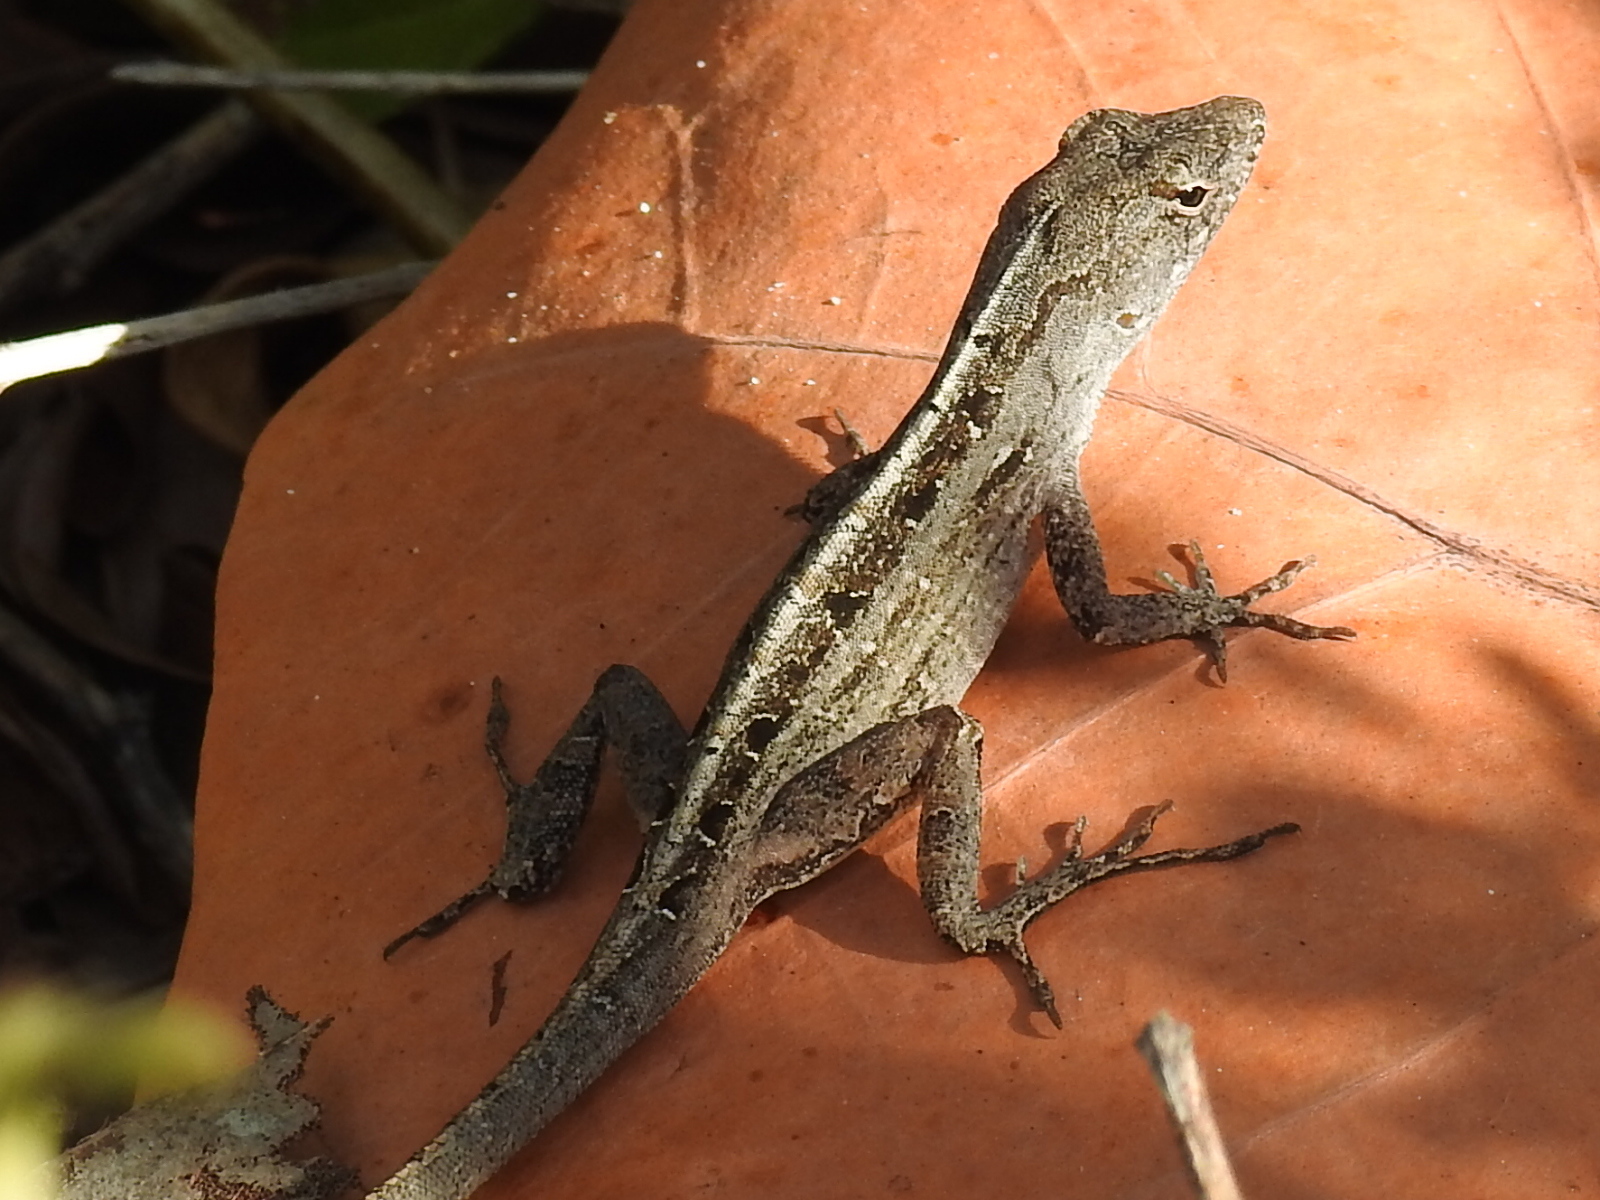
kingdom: Animalia
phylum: Chordata
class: Squamata
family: Dactyloidae
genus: Anolis
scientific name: Anolis sagrei
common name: Brown anole
